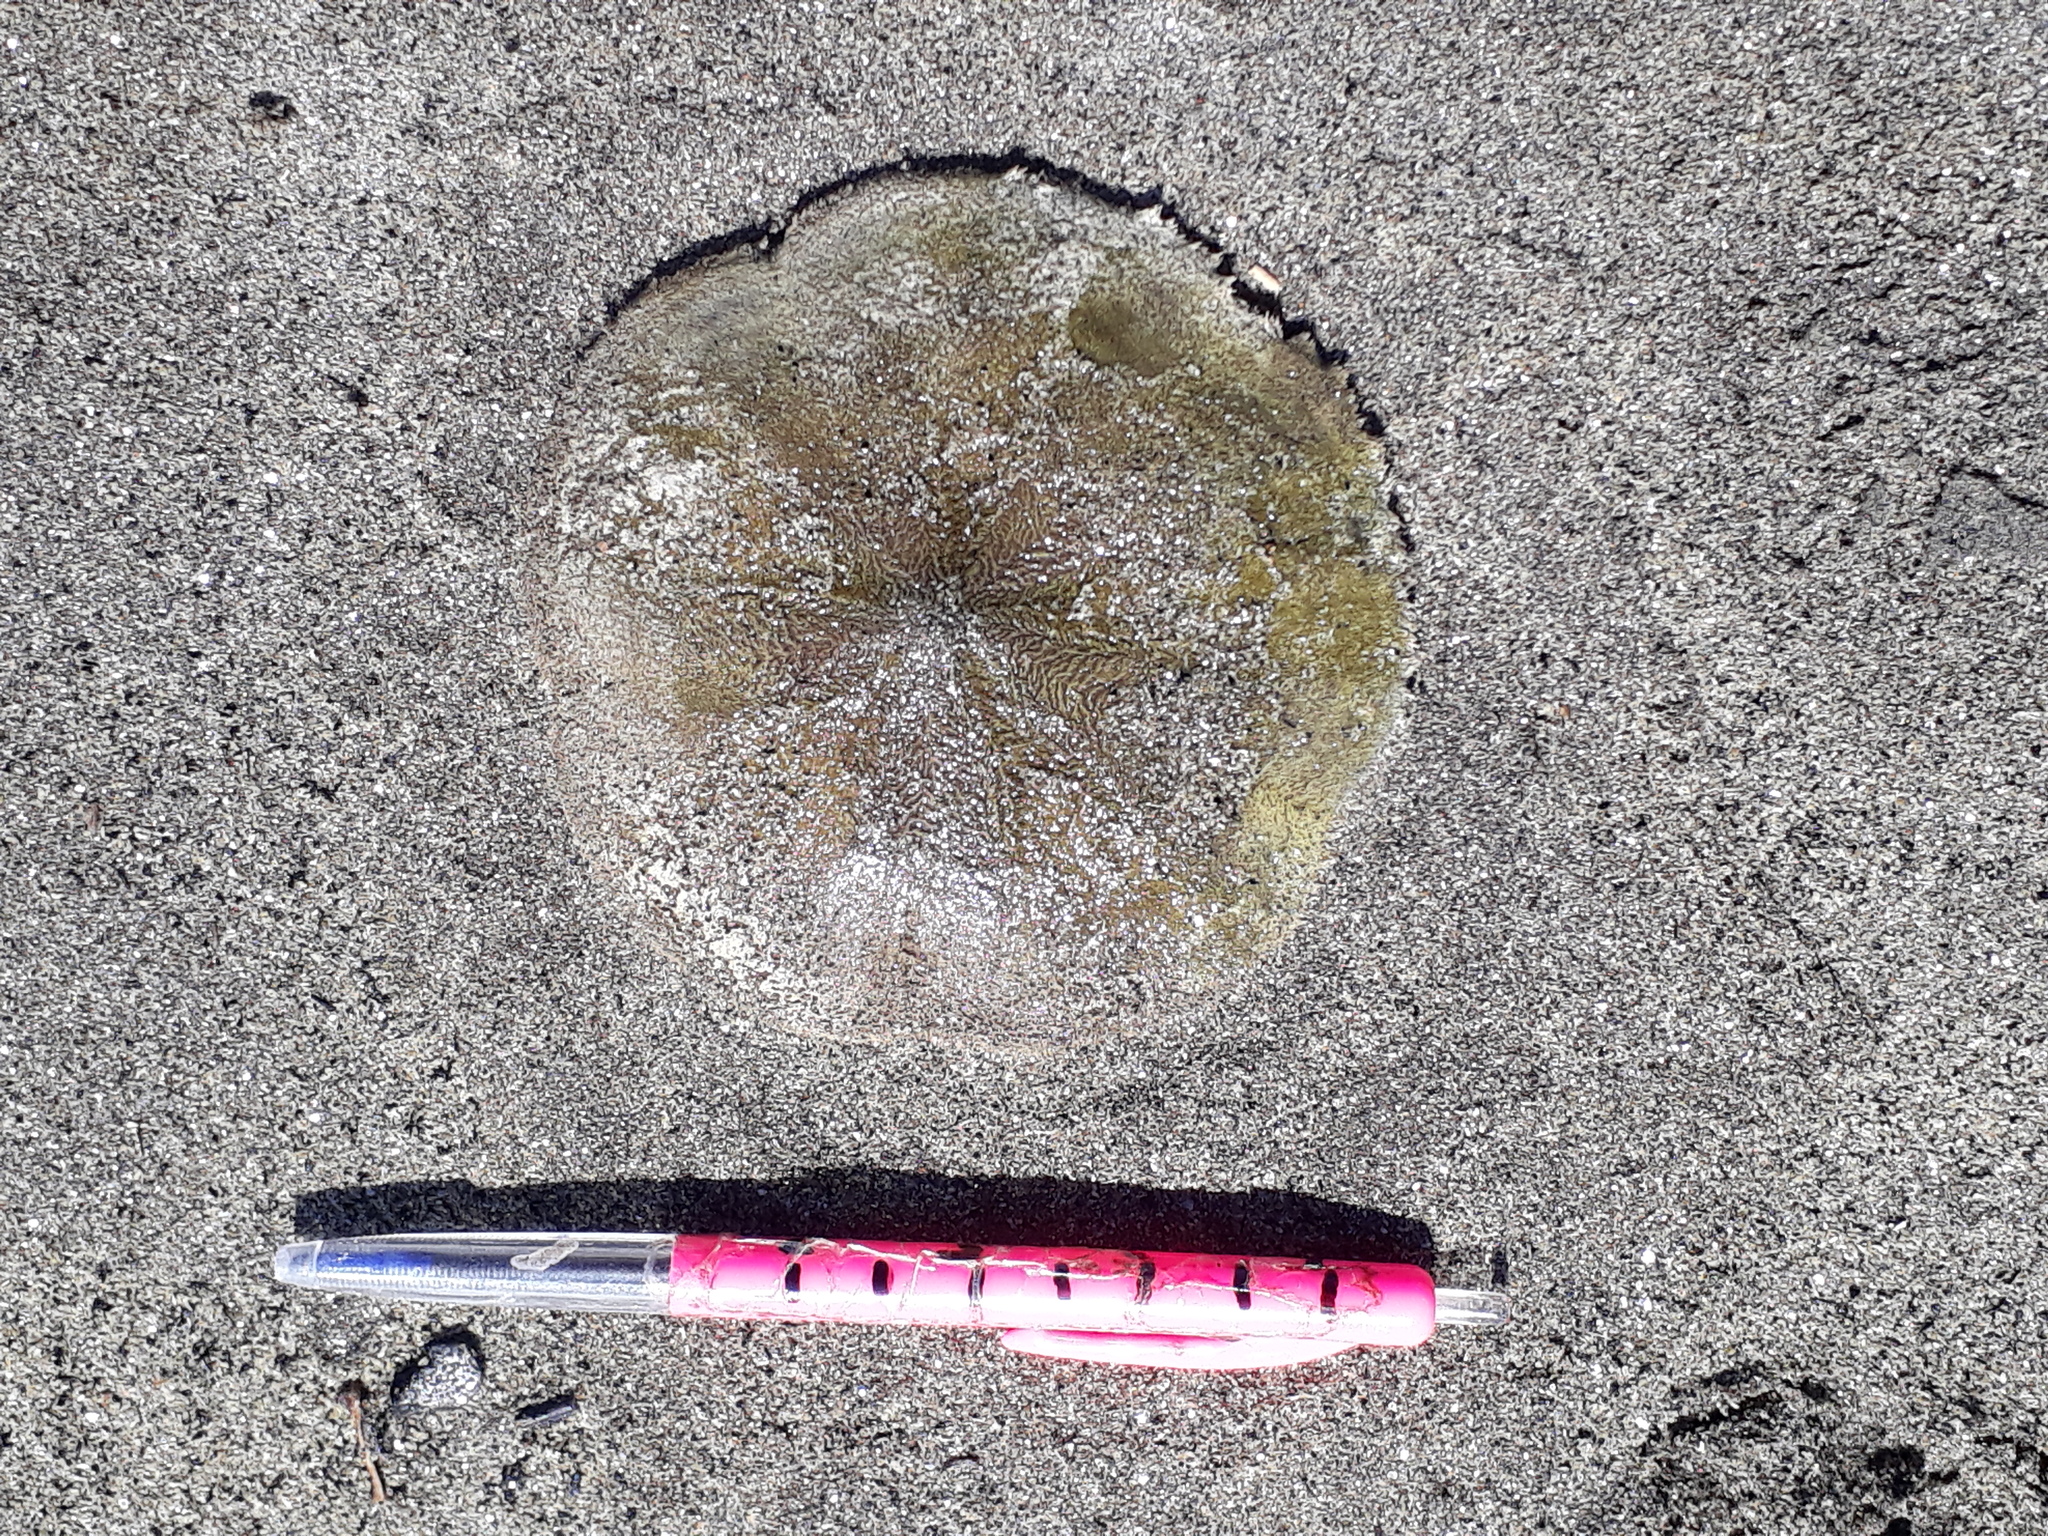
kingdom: Animalia
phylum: Echinodermata
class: Echinoidea
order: Clypeasteroida
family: Clypeasteridae
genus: Fellaster
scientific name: Fellaster zelandiae
